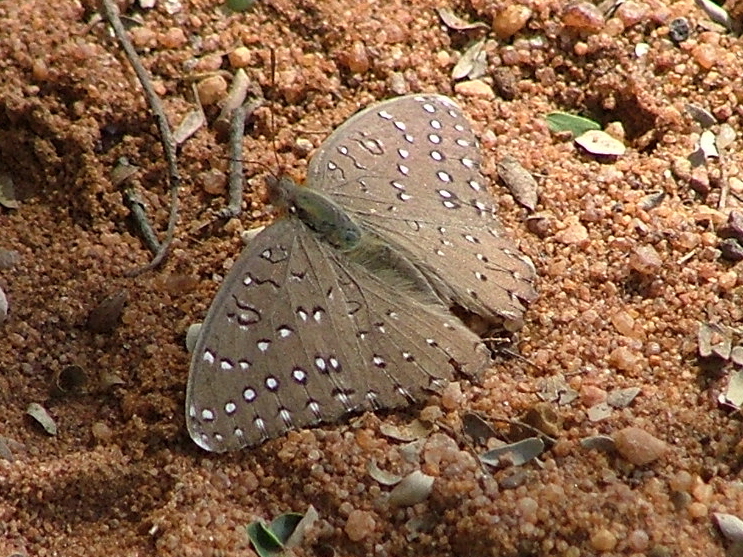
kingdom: Animalia
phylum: Arthropoda
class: Insecta
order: Lepidoptera
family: Nymphalidae
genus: Hamanumida
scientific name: Hamanumida daedalus
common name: Guinea-fowl butterfly
